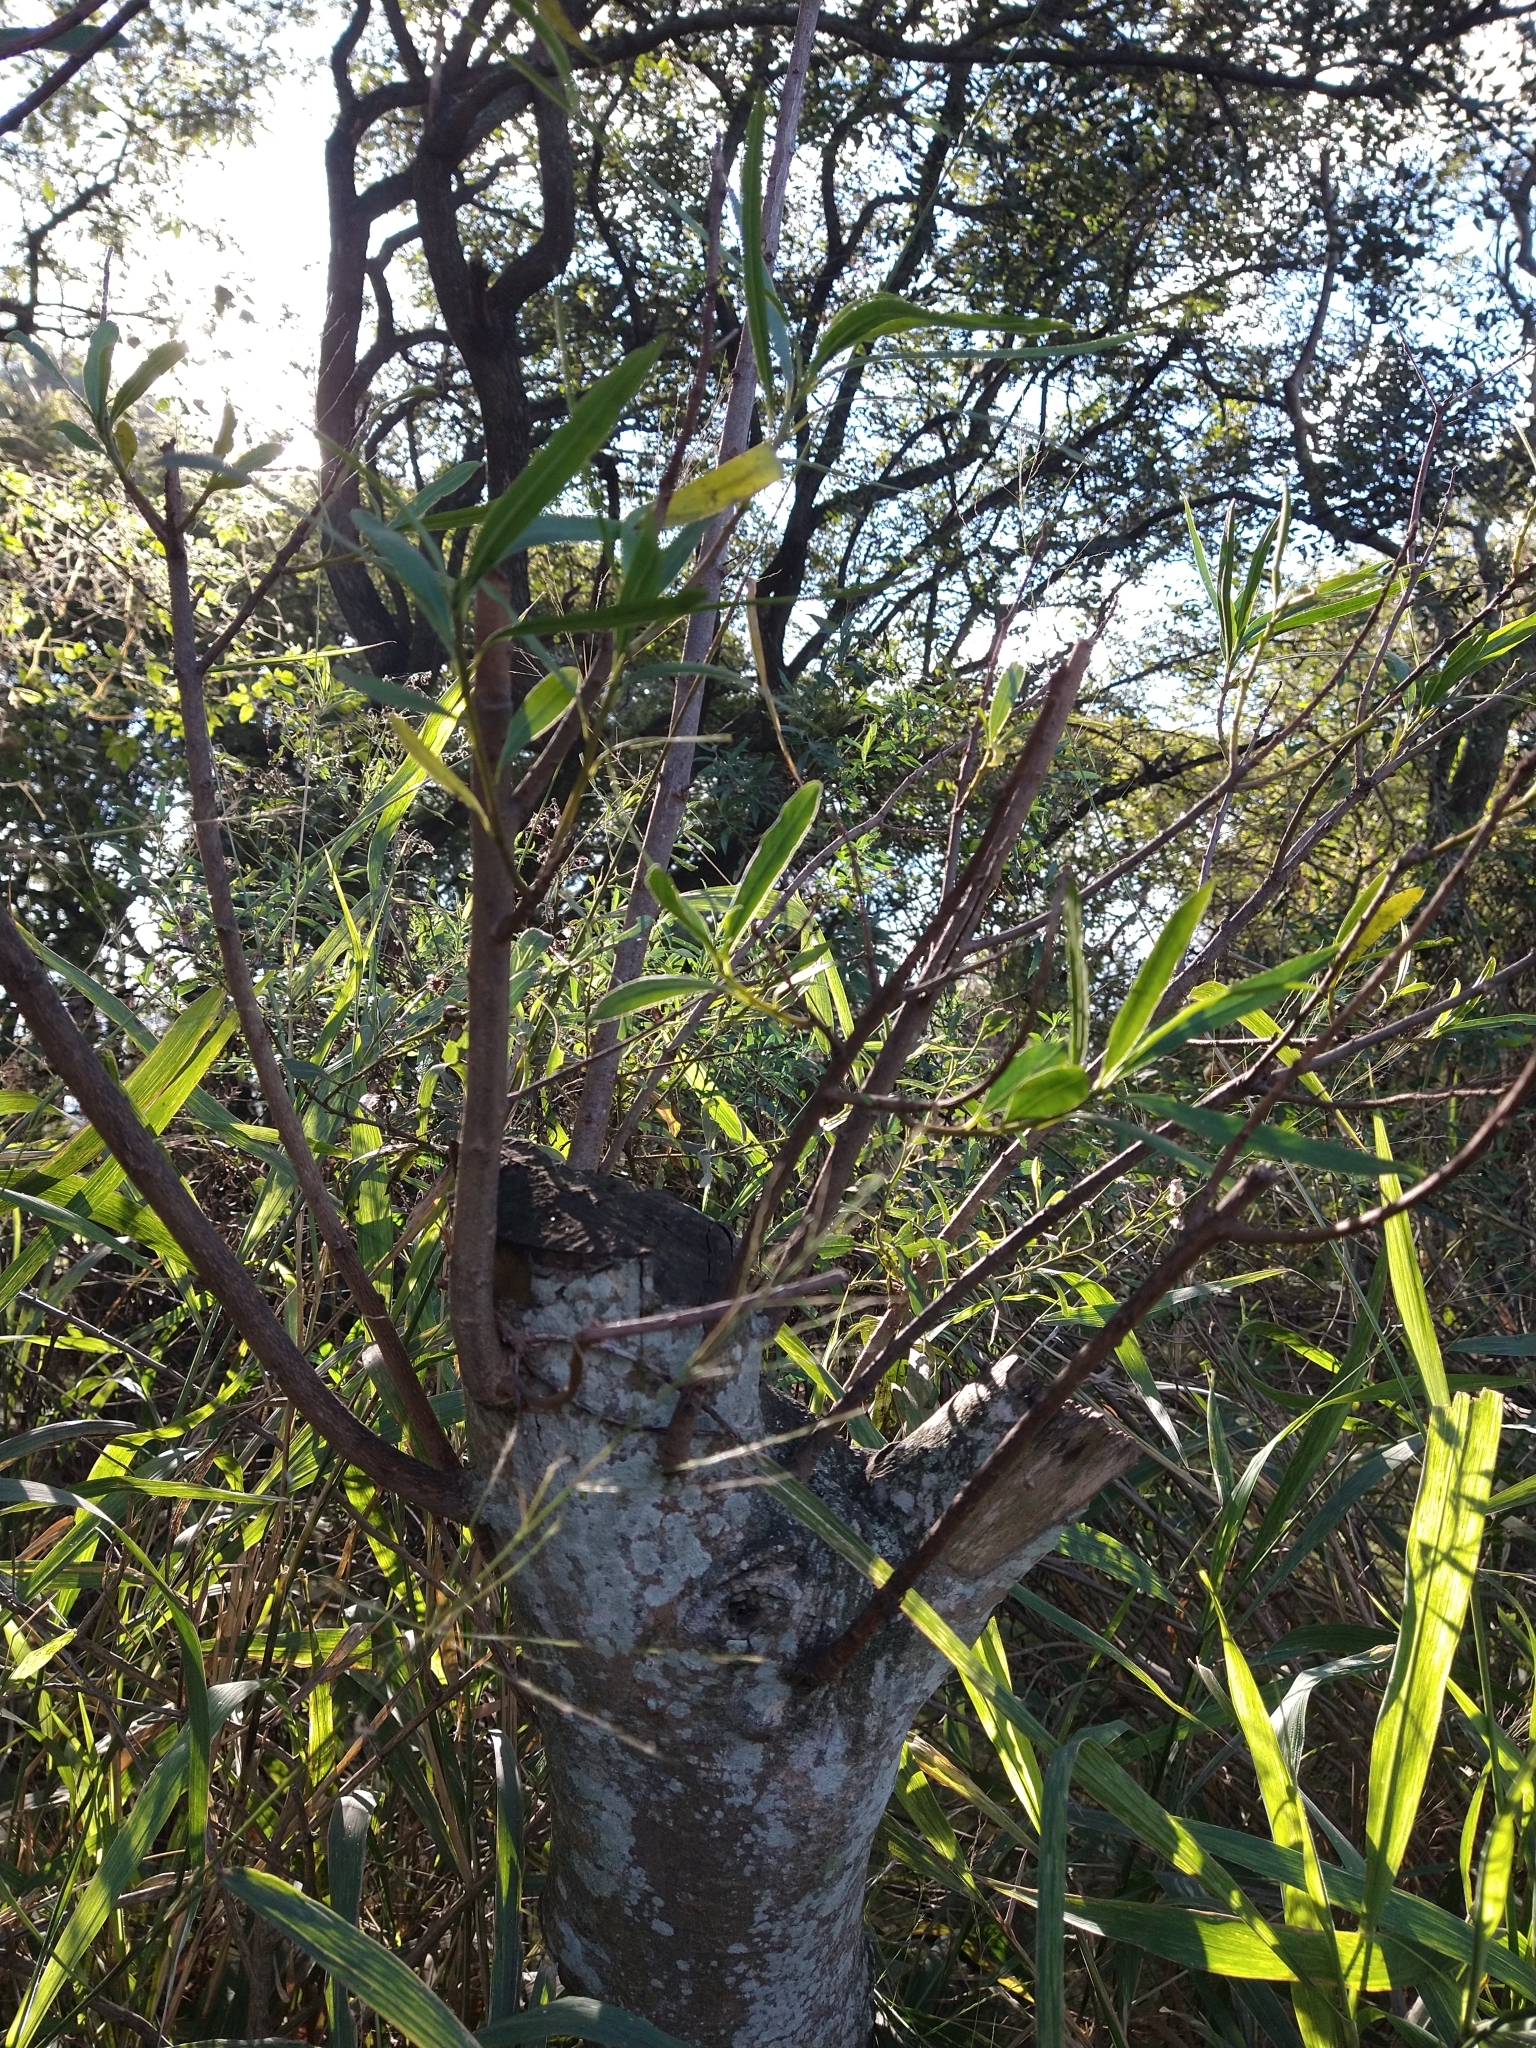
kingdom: Plantae
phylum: Tracheophyta
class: Magnoliopsida
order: Malpighiales
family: Euphorbiaceae
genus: Sapium
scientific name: Sapium haematospermum
